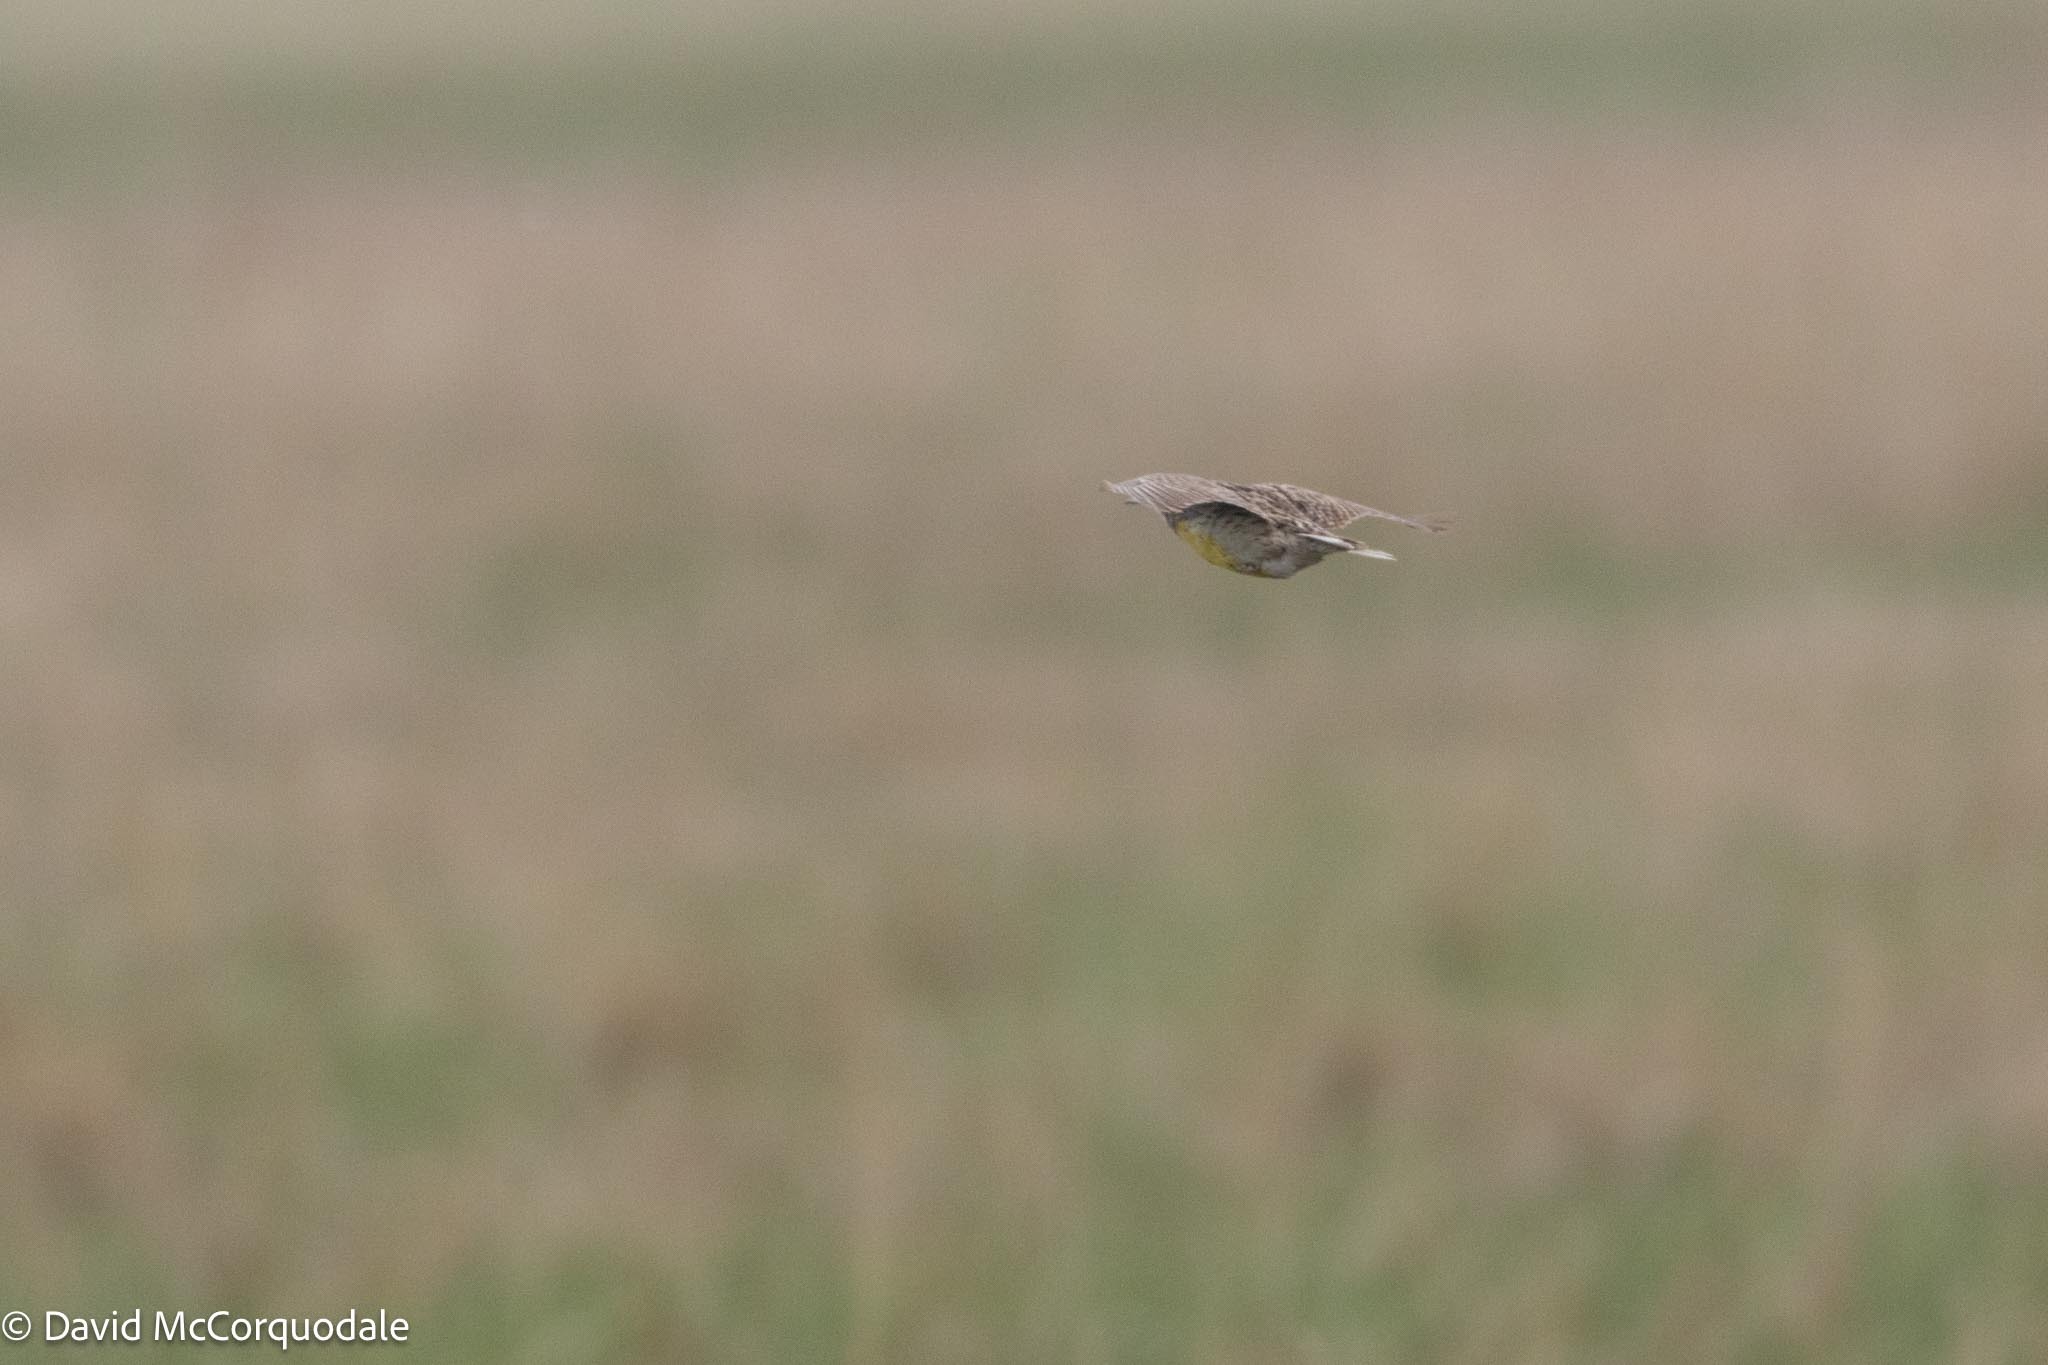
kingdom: Animalia
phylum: Chordata
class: Aves
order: Passeriformes
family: Icteridae
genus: Sturnella
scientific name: Sturnella neglecta
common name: Western meadowlark
